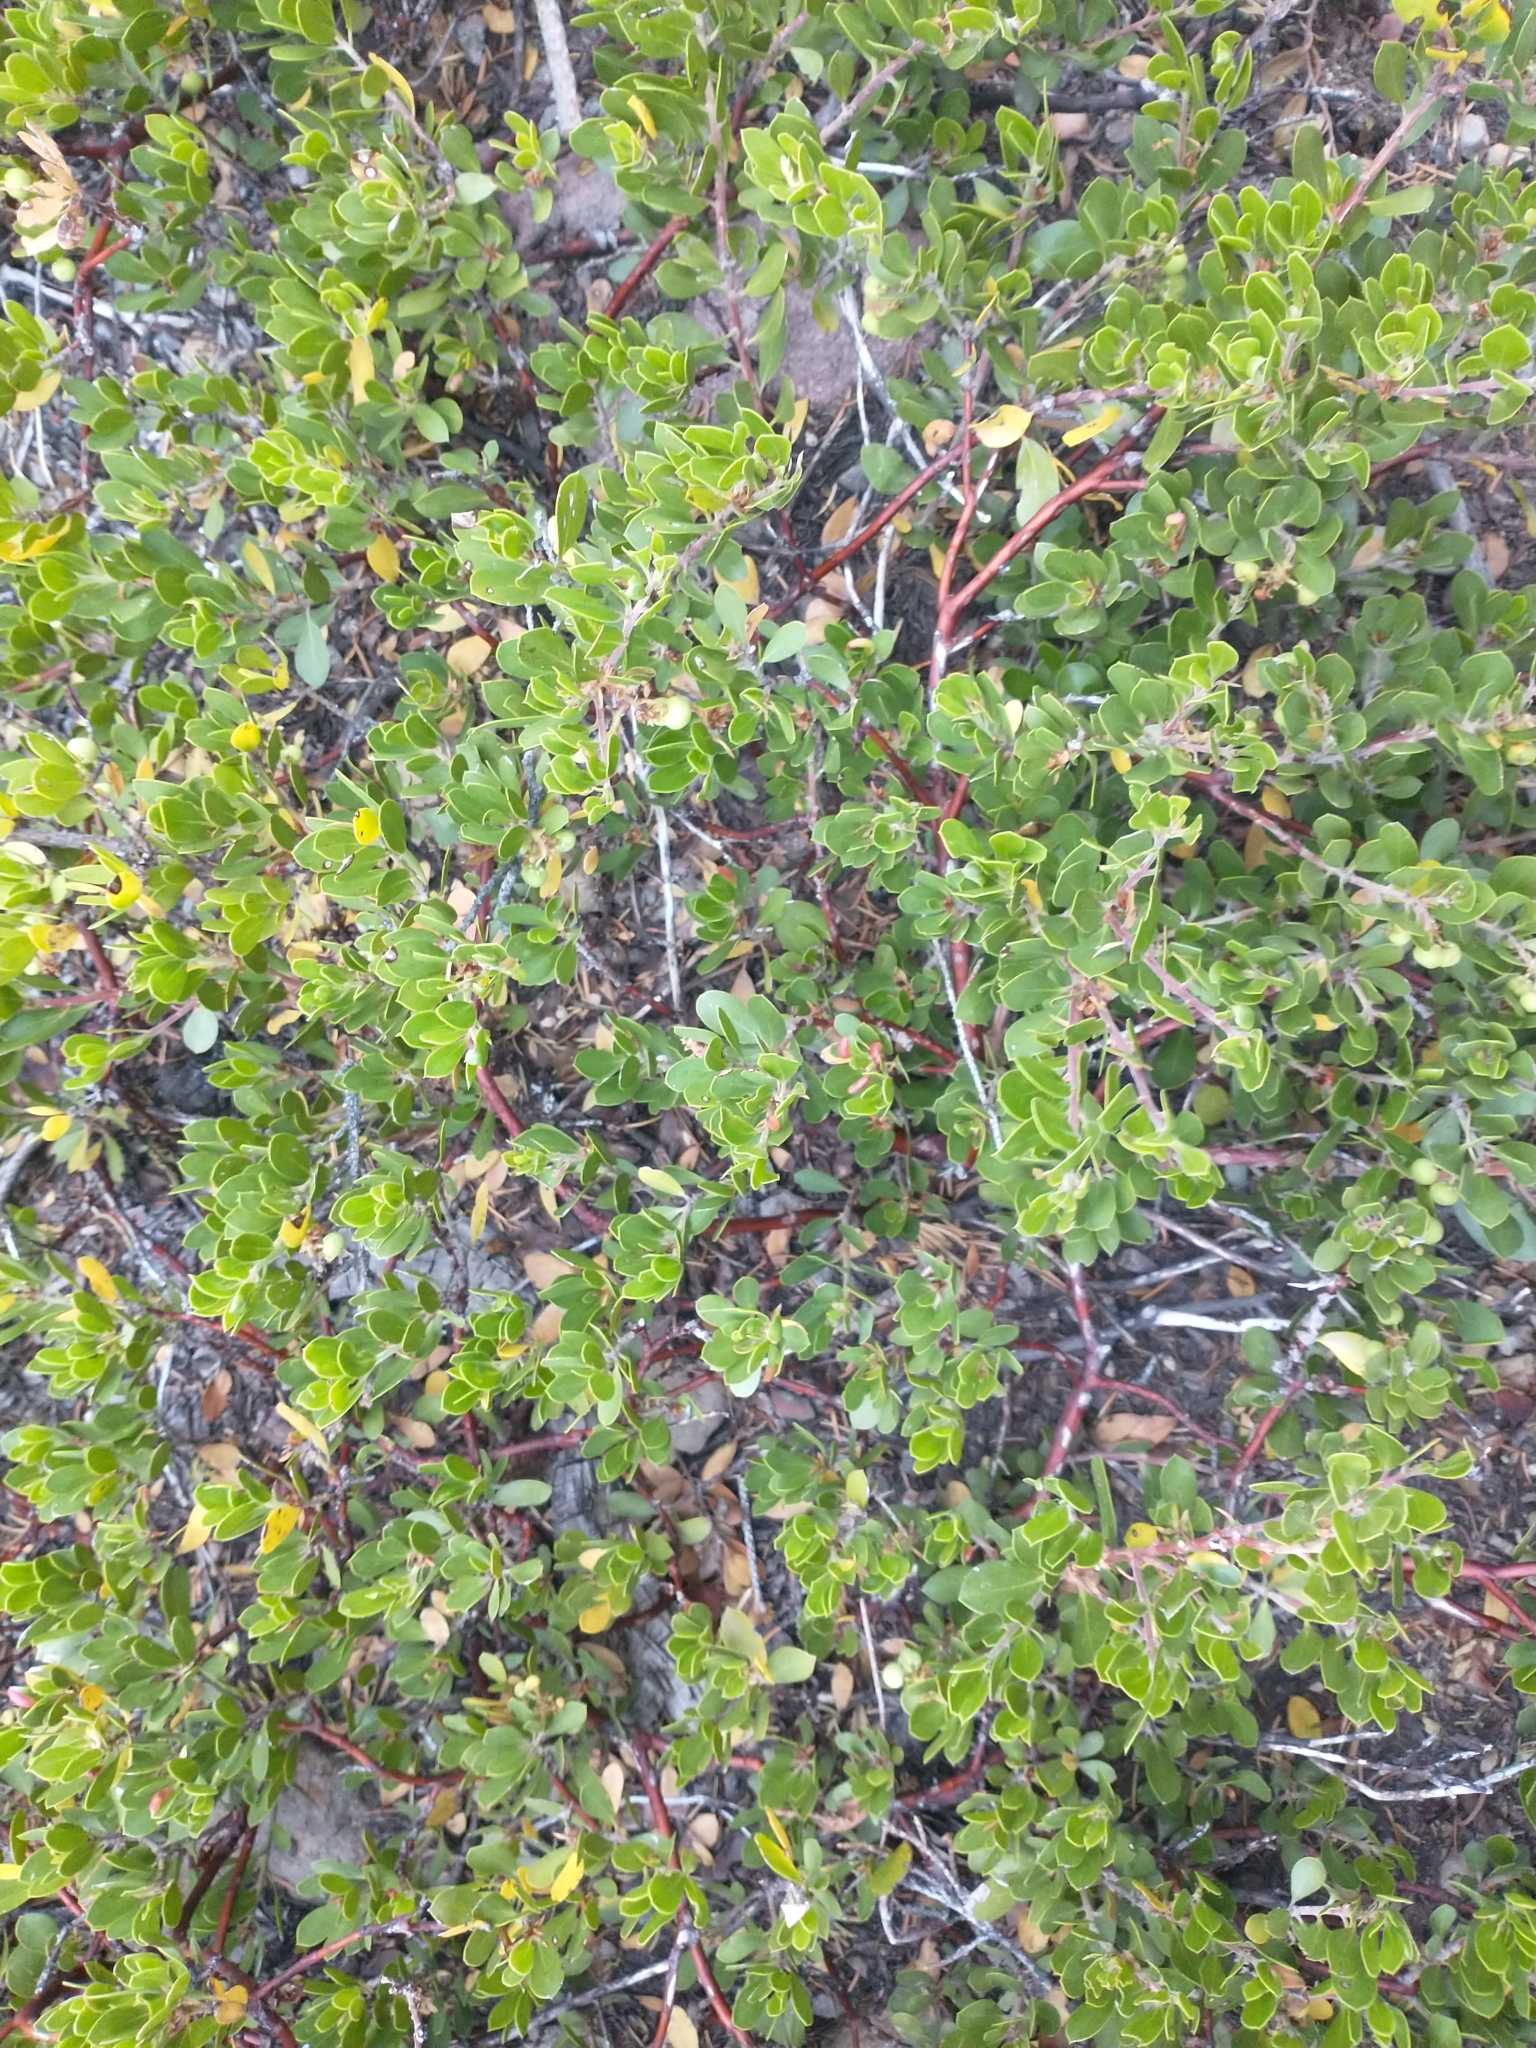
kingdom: Plantae
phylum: Tracheophyta
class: Magnoliopsida
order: Ericales
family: Ericaceae
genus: Arctostaphylos
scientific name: Arctostaphylos nevadensis
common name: Pinemat manzanita
